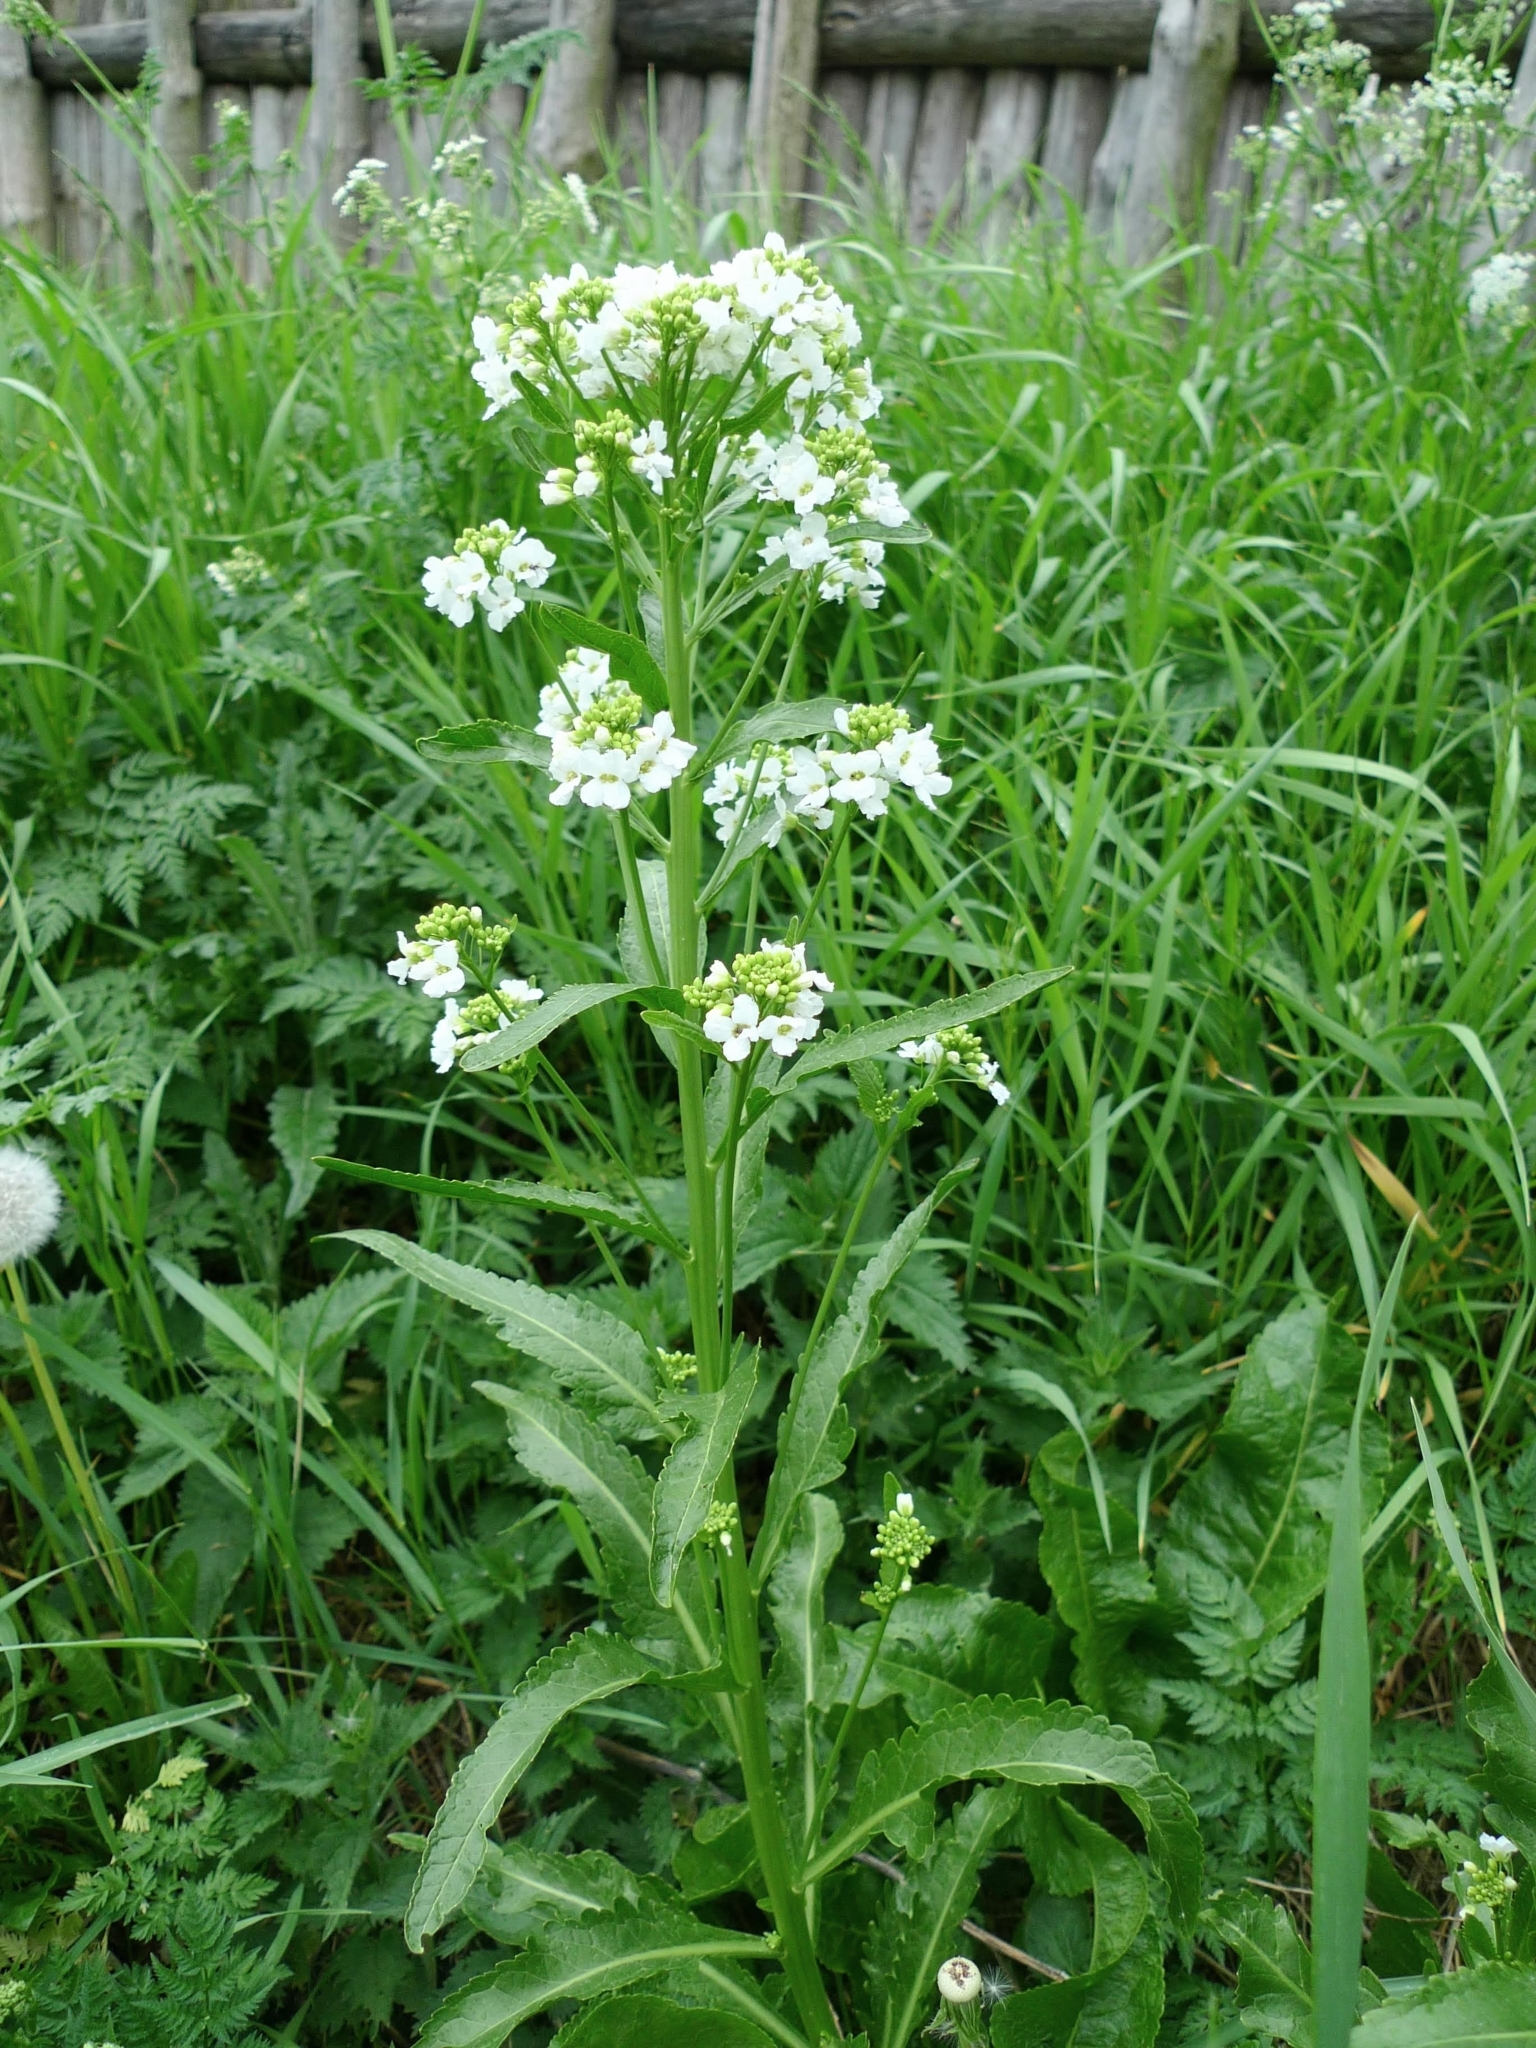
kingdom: Plantae
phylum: Tracheophyta
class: Magnoliopsida
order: Brassicales
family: Brassicaceae
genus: Armoracia
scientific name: Armoracia rusticana
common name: Horseradish
